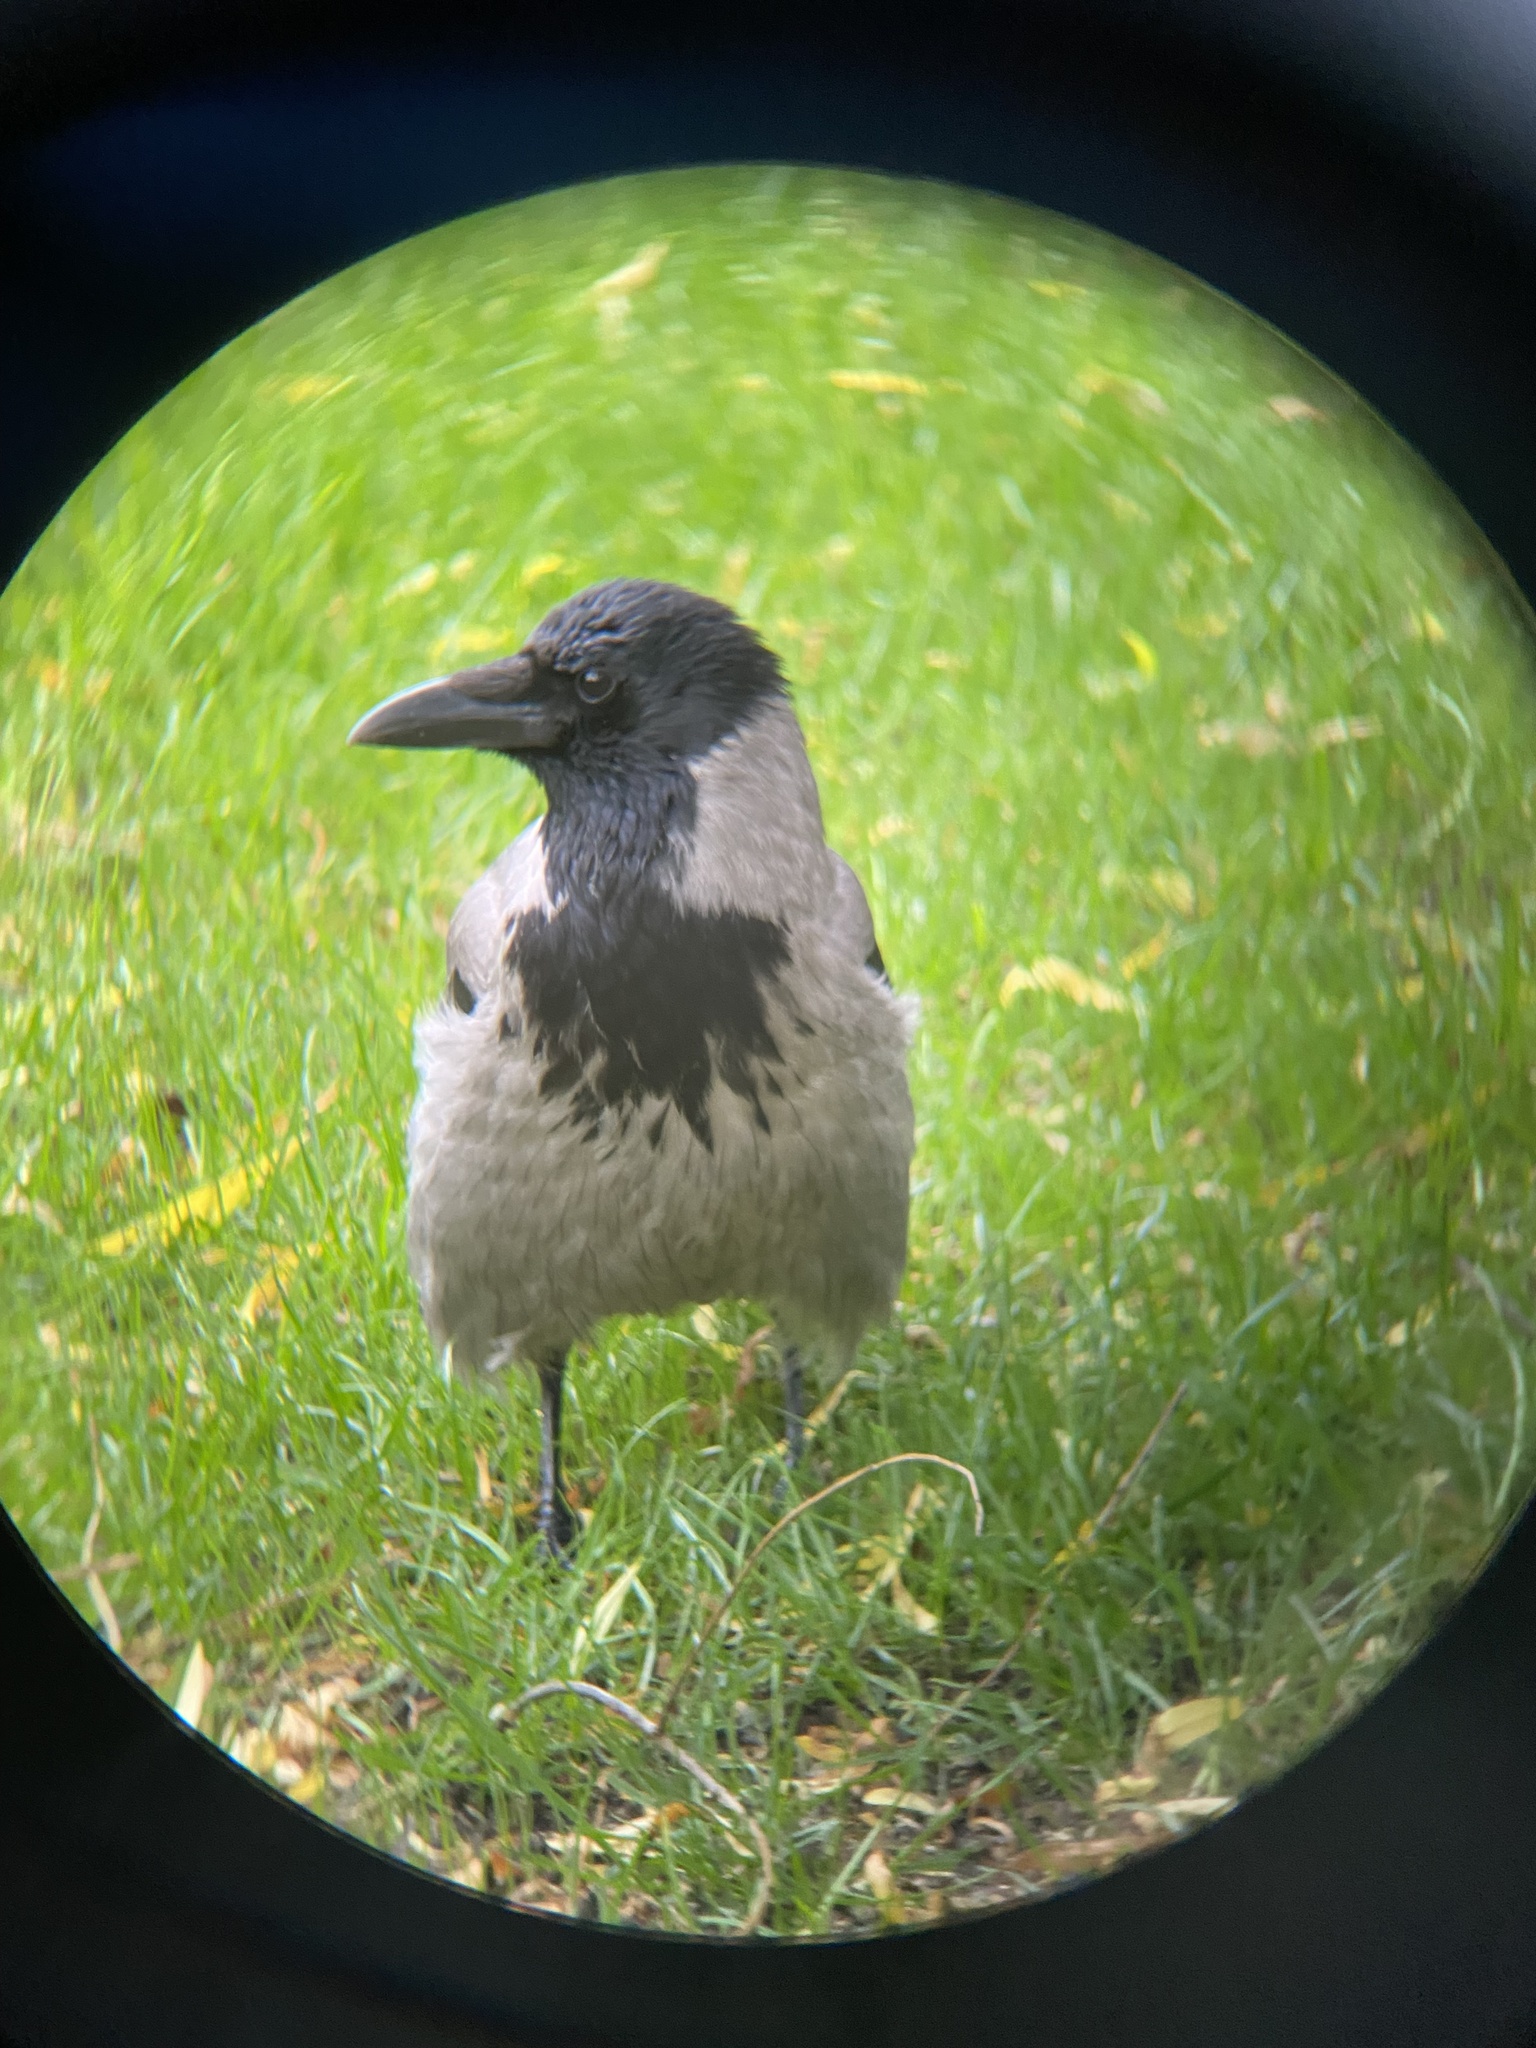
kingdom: Animalia
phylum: Chordata
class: Aves
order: Passeriformes
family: Corvidae
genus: Corvus
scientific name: Corvus cornix
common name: Hooded crow
